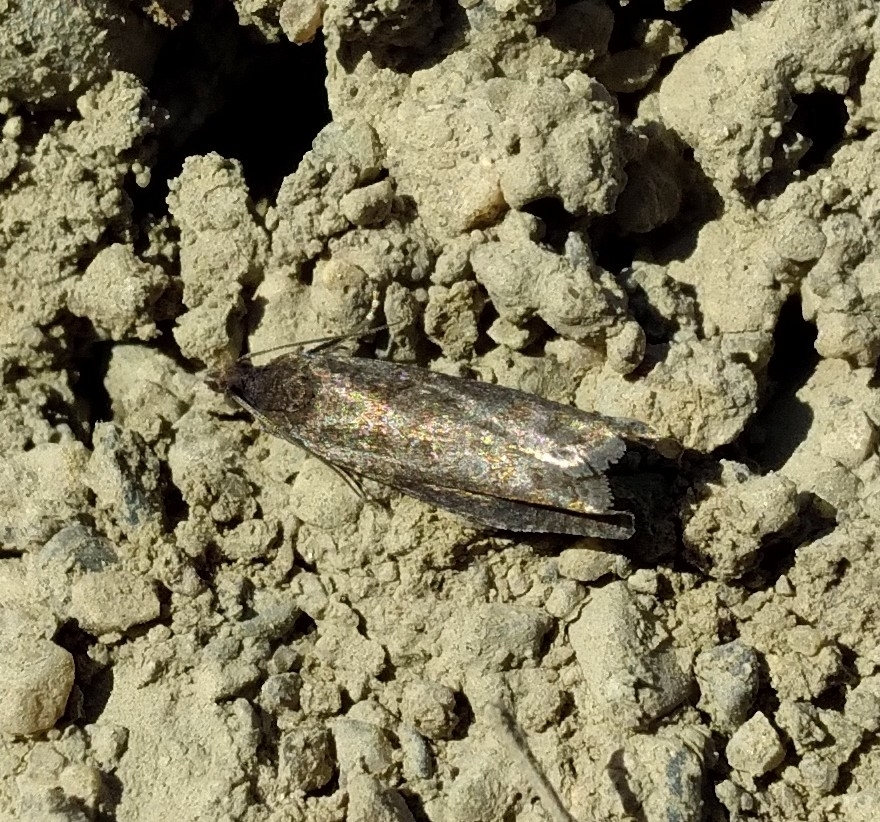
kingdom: Animalia
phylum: Arthropoda
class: Insecta
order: Lepidoptera
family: Tortricidae
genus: Pseudexentera
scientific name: Pseudexentera oregonana
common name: Early aspen leafcurler
